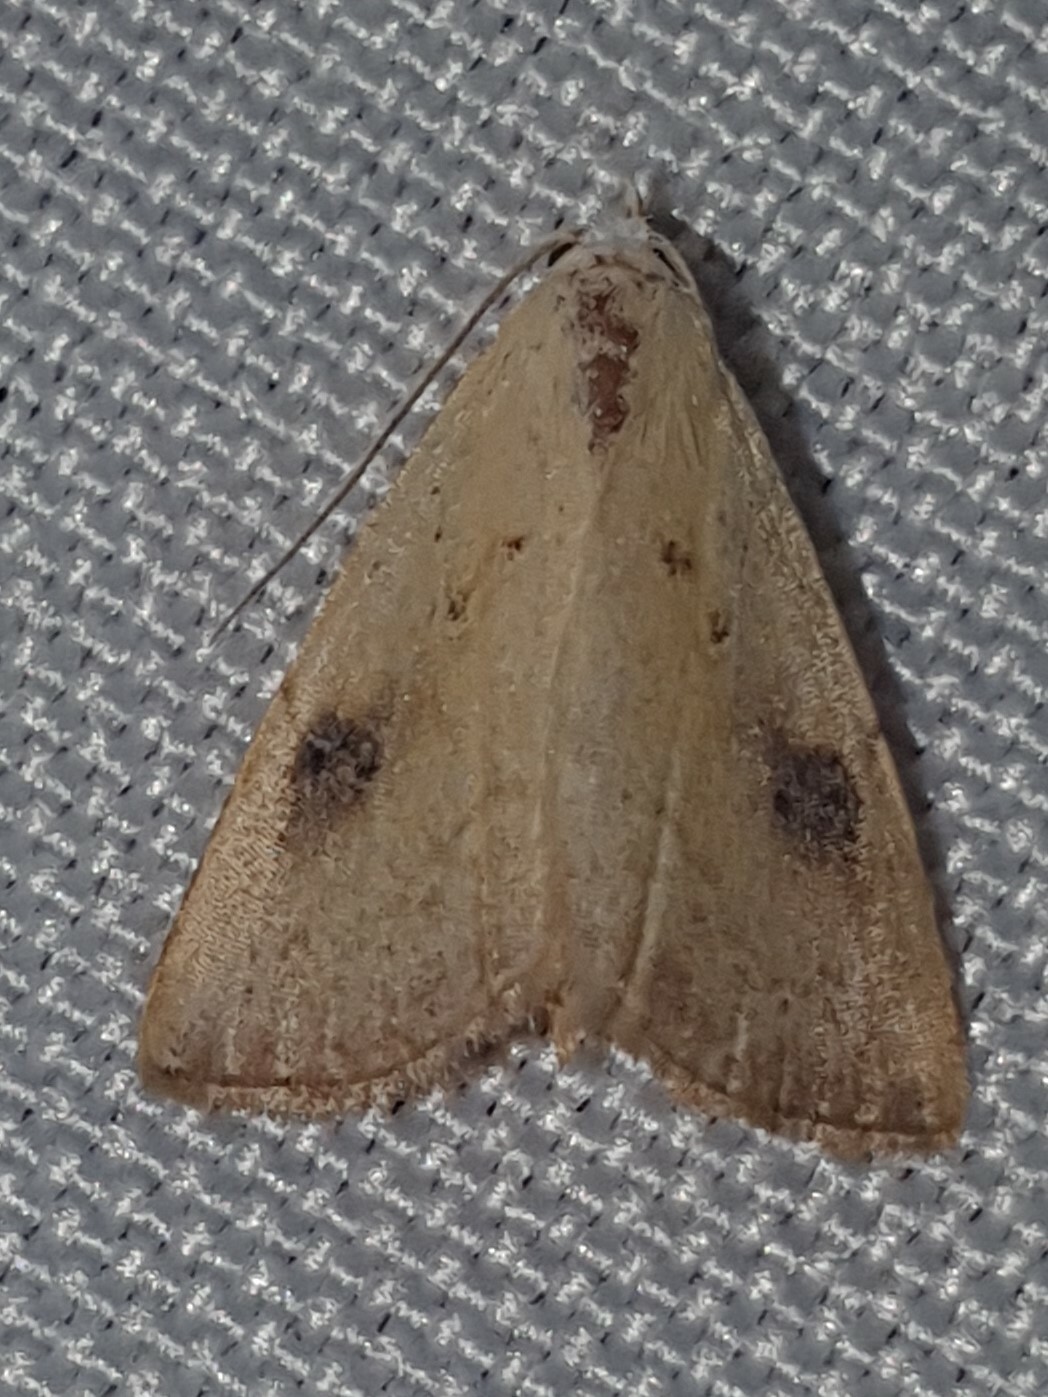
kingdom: Animalia
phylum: Arthropoda
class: Insecta
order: Lepidoptera
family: Erebidae
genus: Rivula
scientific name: Rivula sericealis
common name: Straw dot
